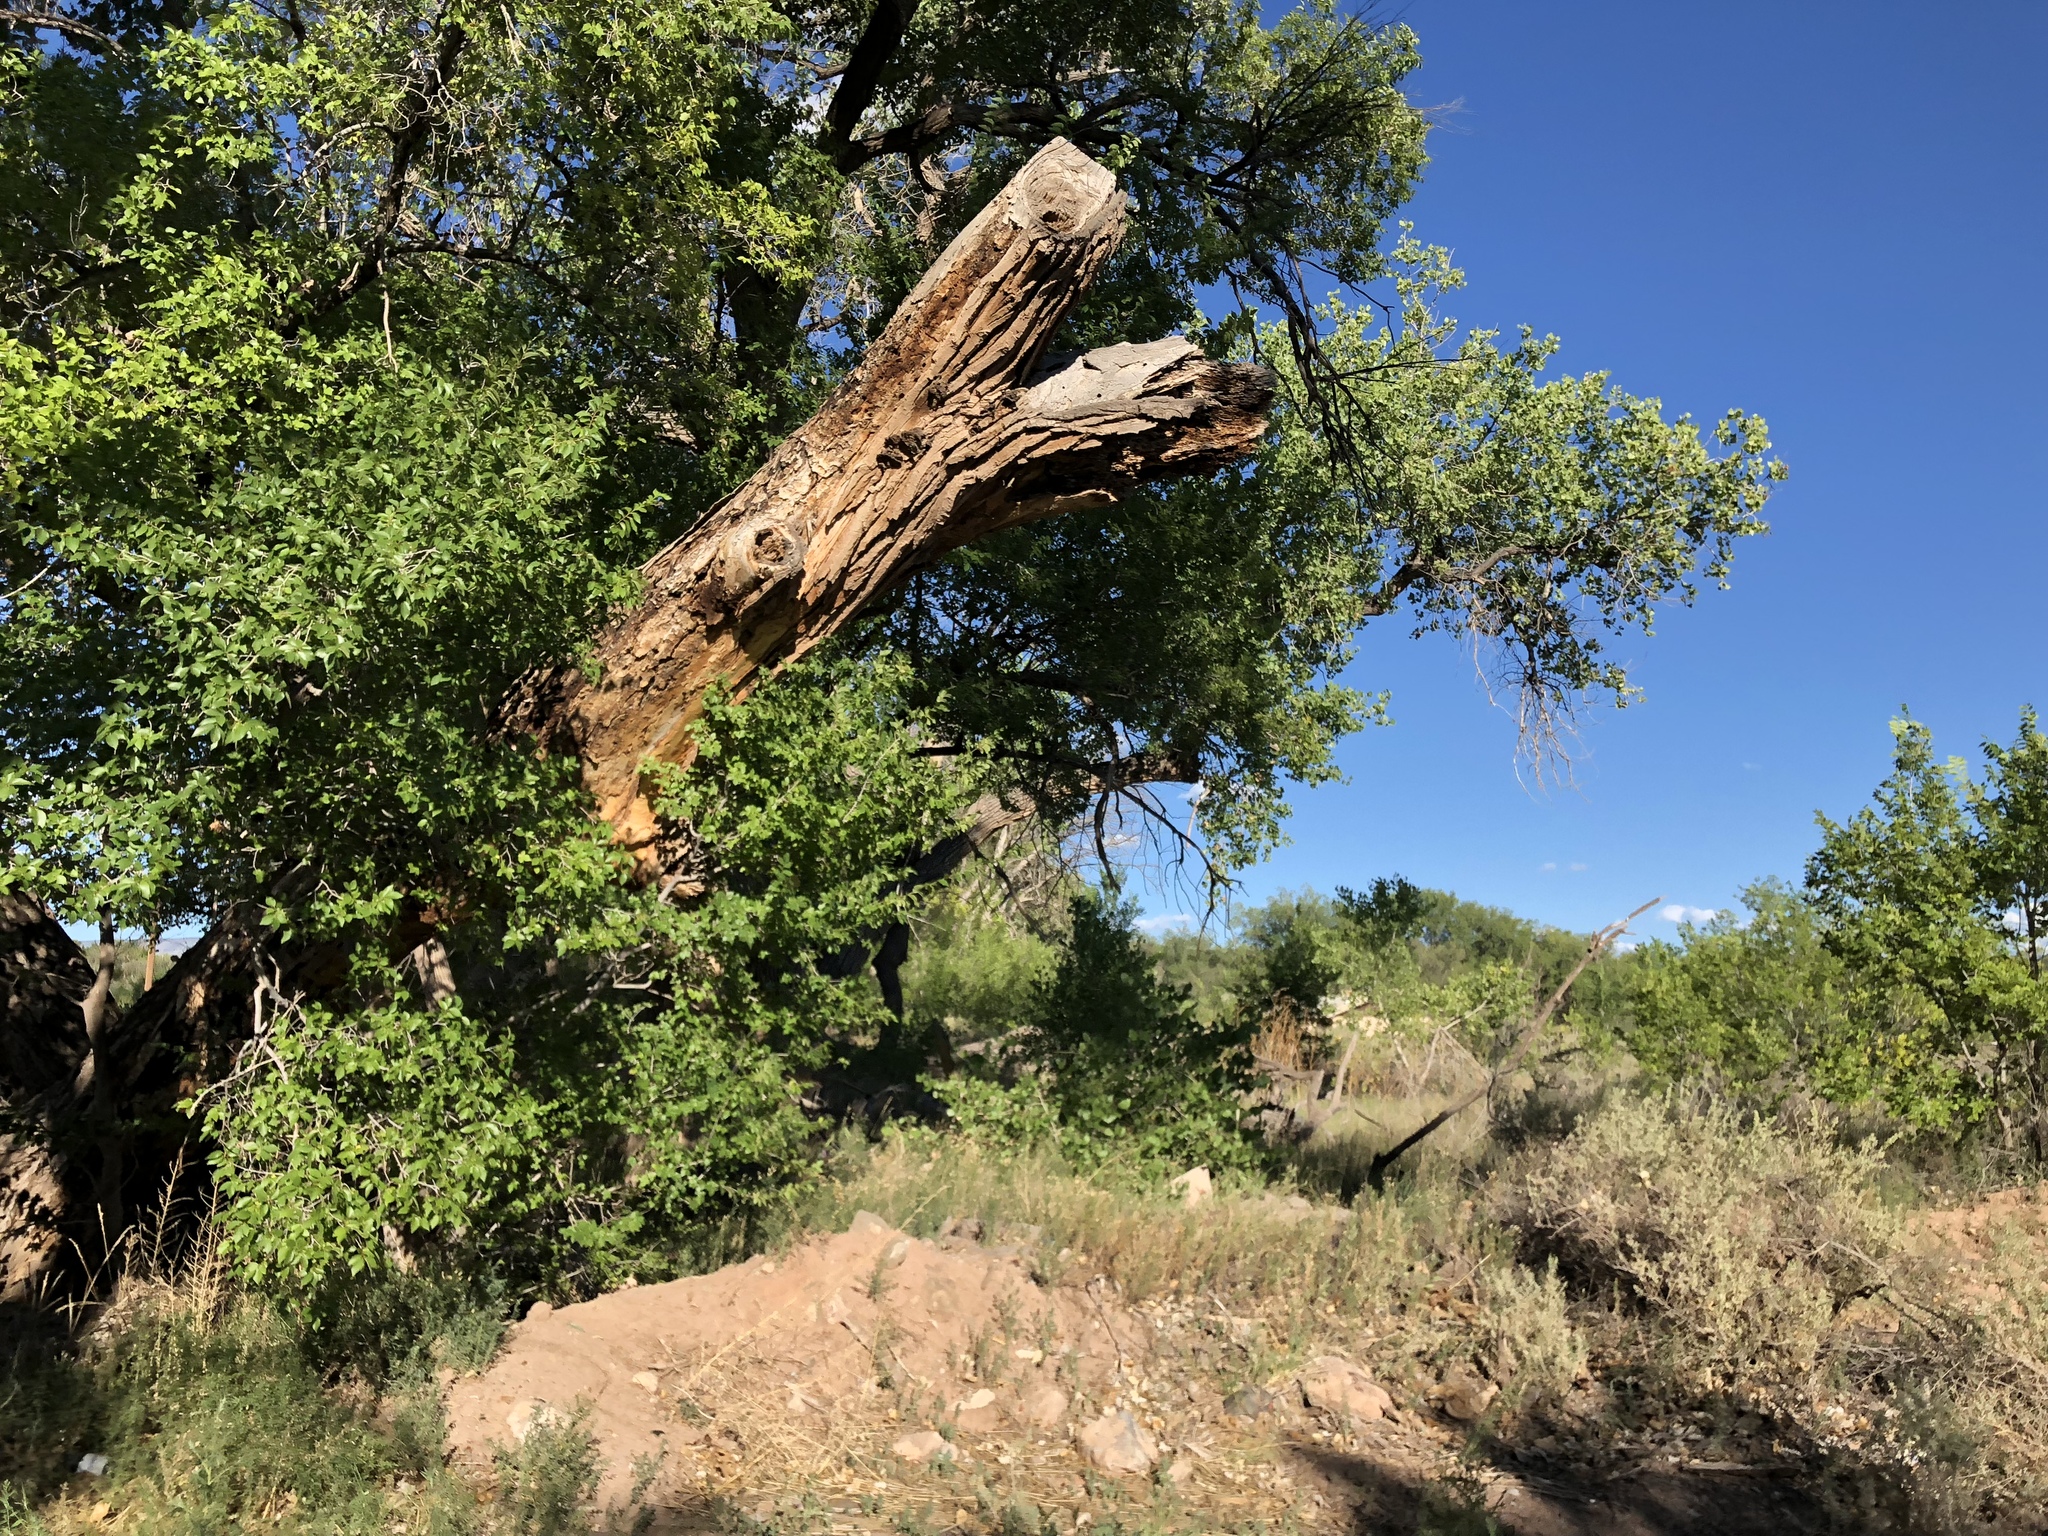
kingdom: Plantae
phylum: Tracheophyta
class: Magnoliopsida
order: Malpighiales
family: Salicaceae
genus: Populus
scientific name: Populus fremontii
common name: Fremont's cottonwood
